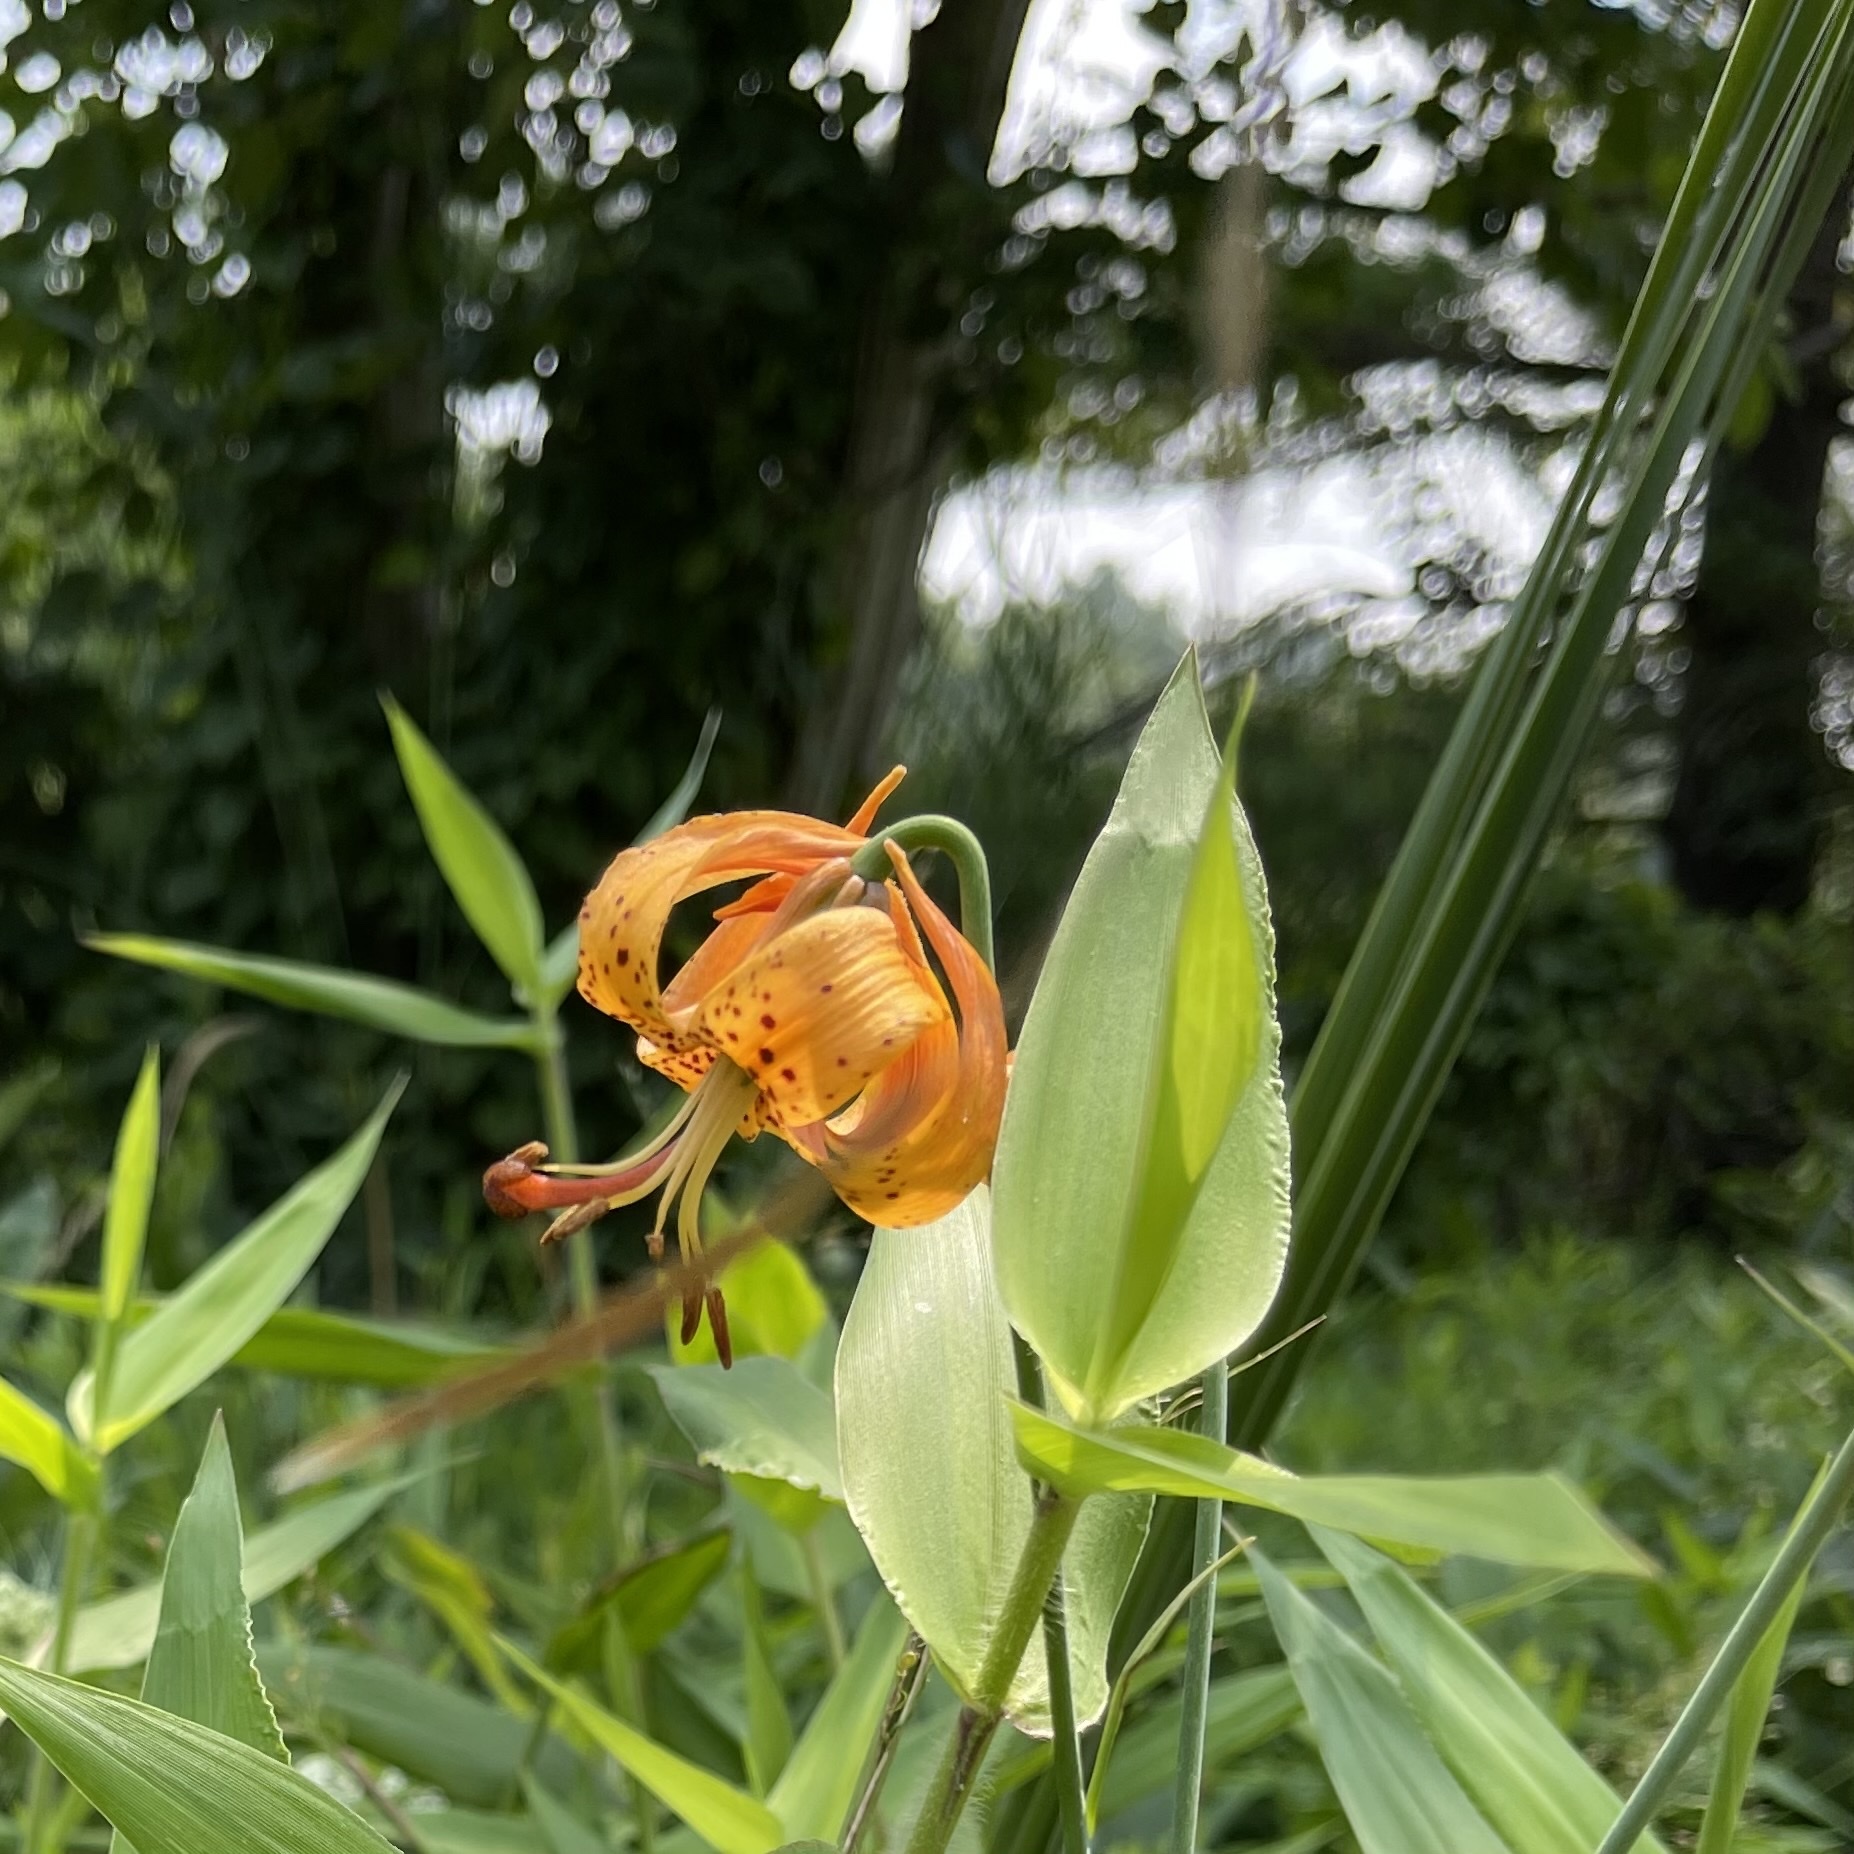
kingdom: Plantae
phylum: Tracheophyta
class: Liliopsida
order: Liliales
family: Liliaceae
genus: Lilium
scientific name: Lilium michiganense
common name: Michigan lily
